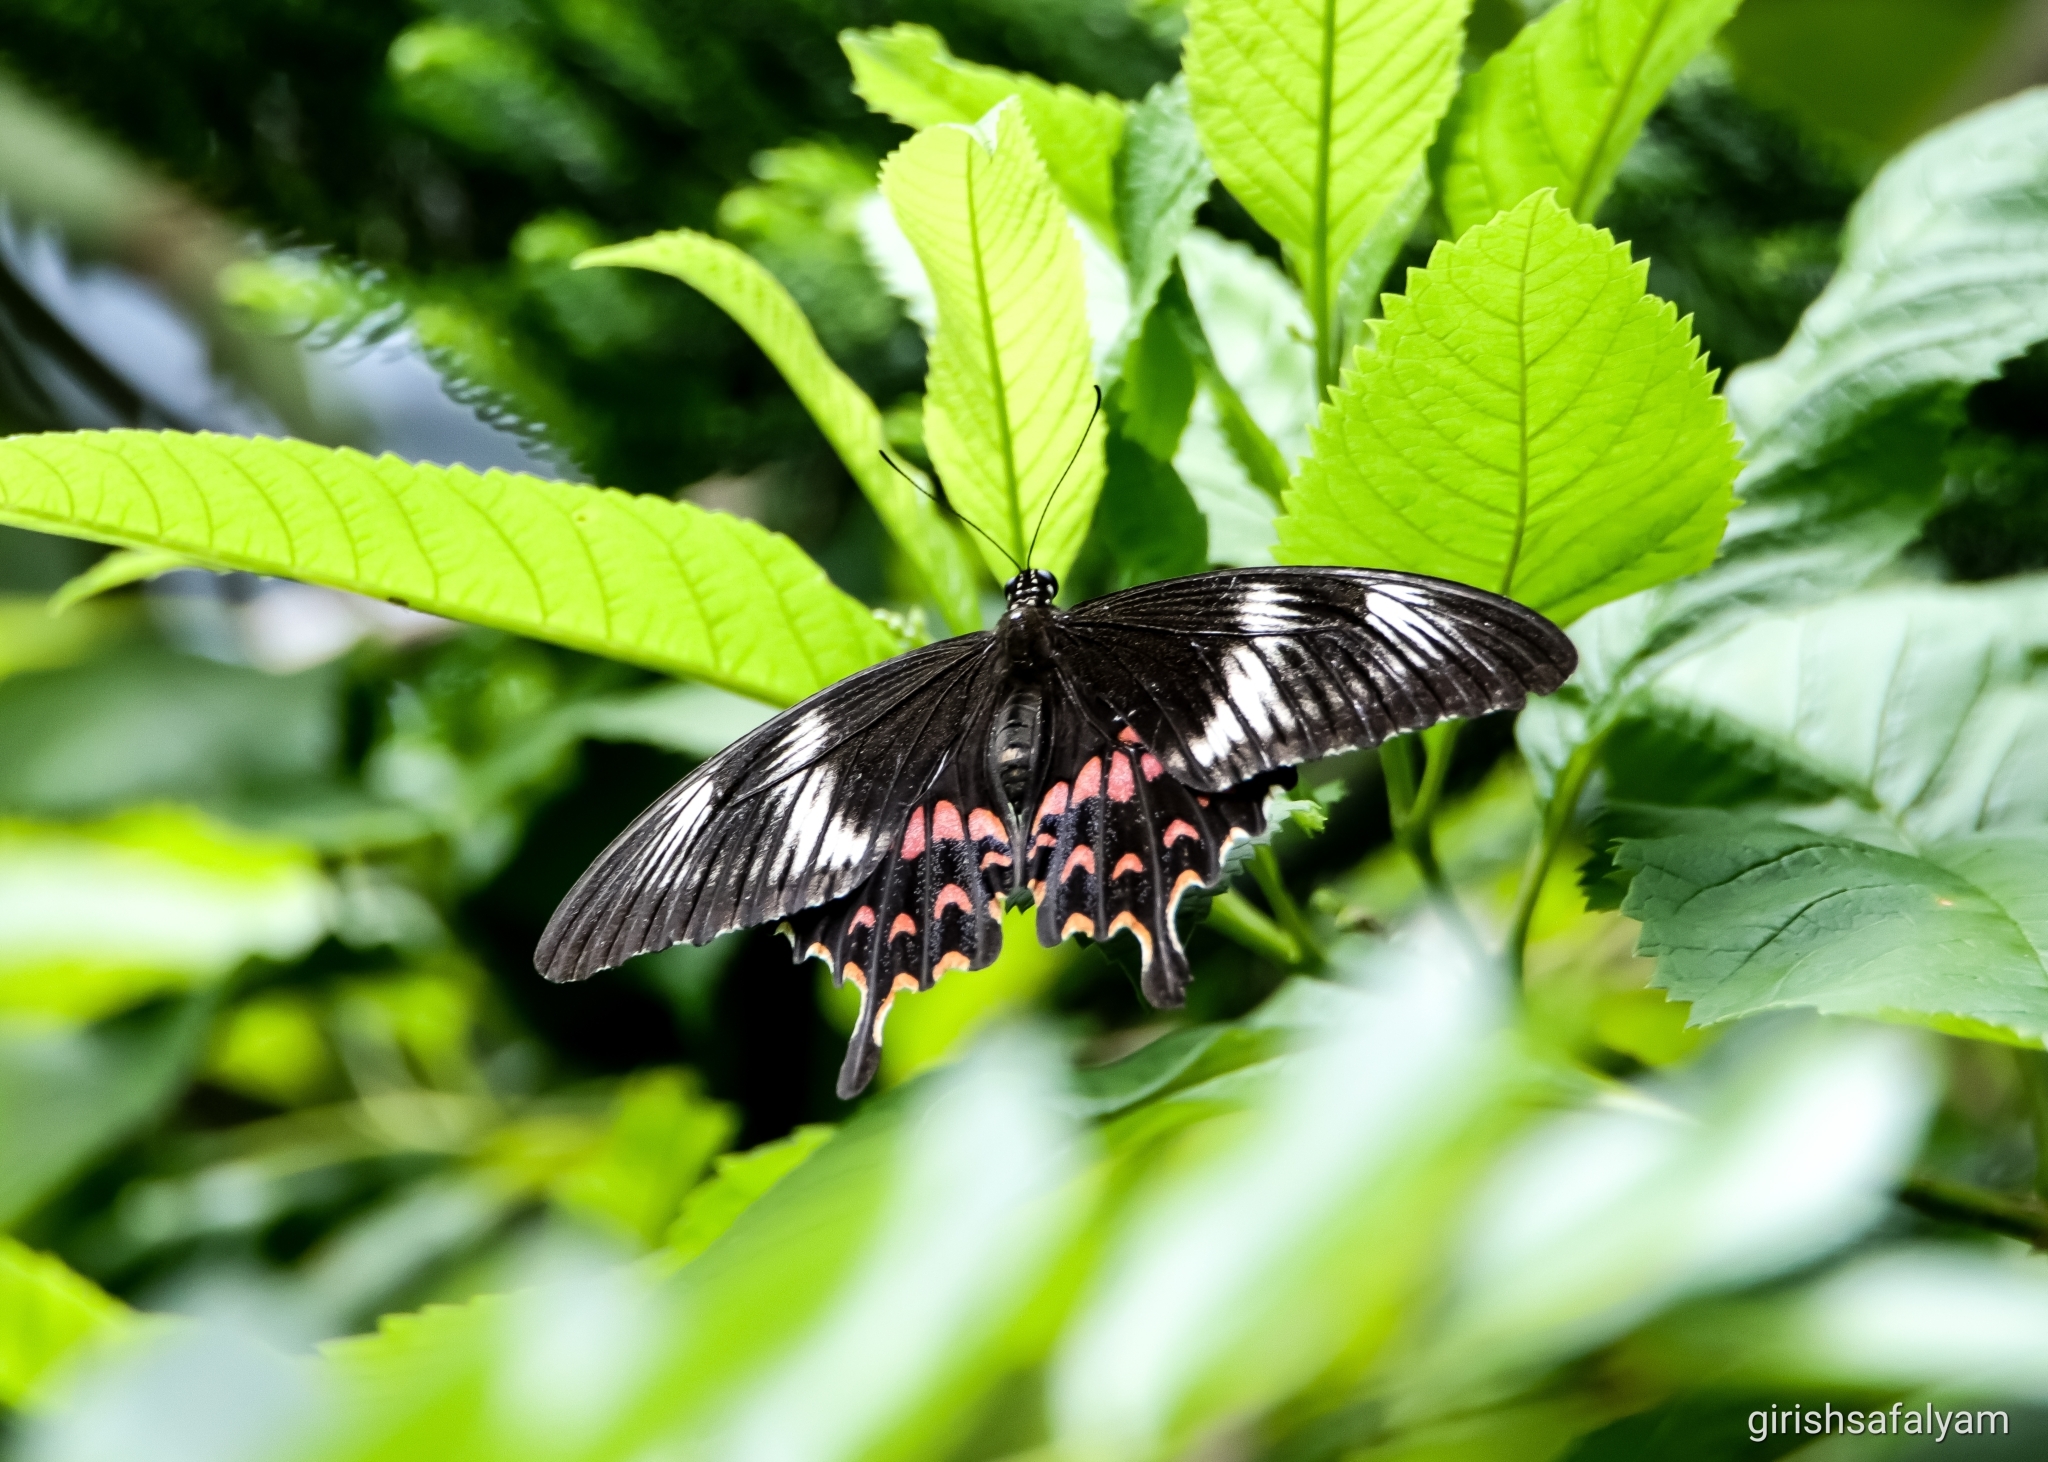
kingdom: Animalia
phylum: Arthropoda
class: Insecta
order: Lepidoptera
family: Papilionidae
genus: Papilio
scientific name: Papilio polytes
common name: Common mormon
